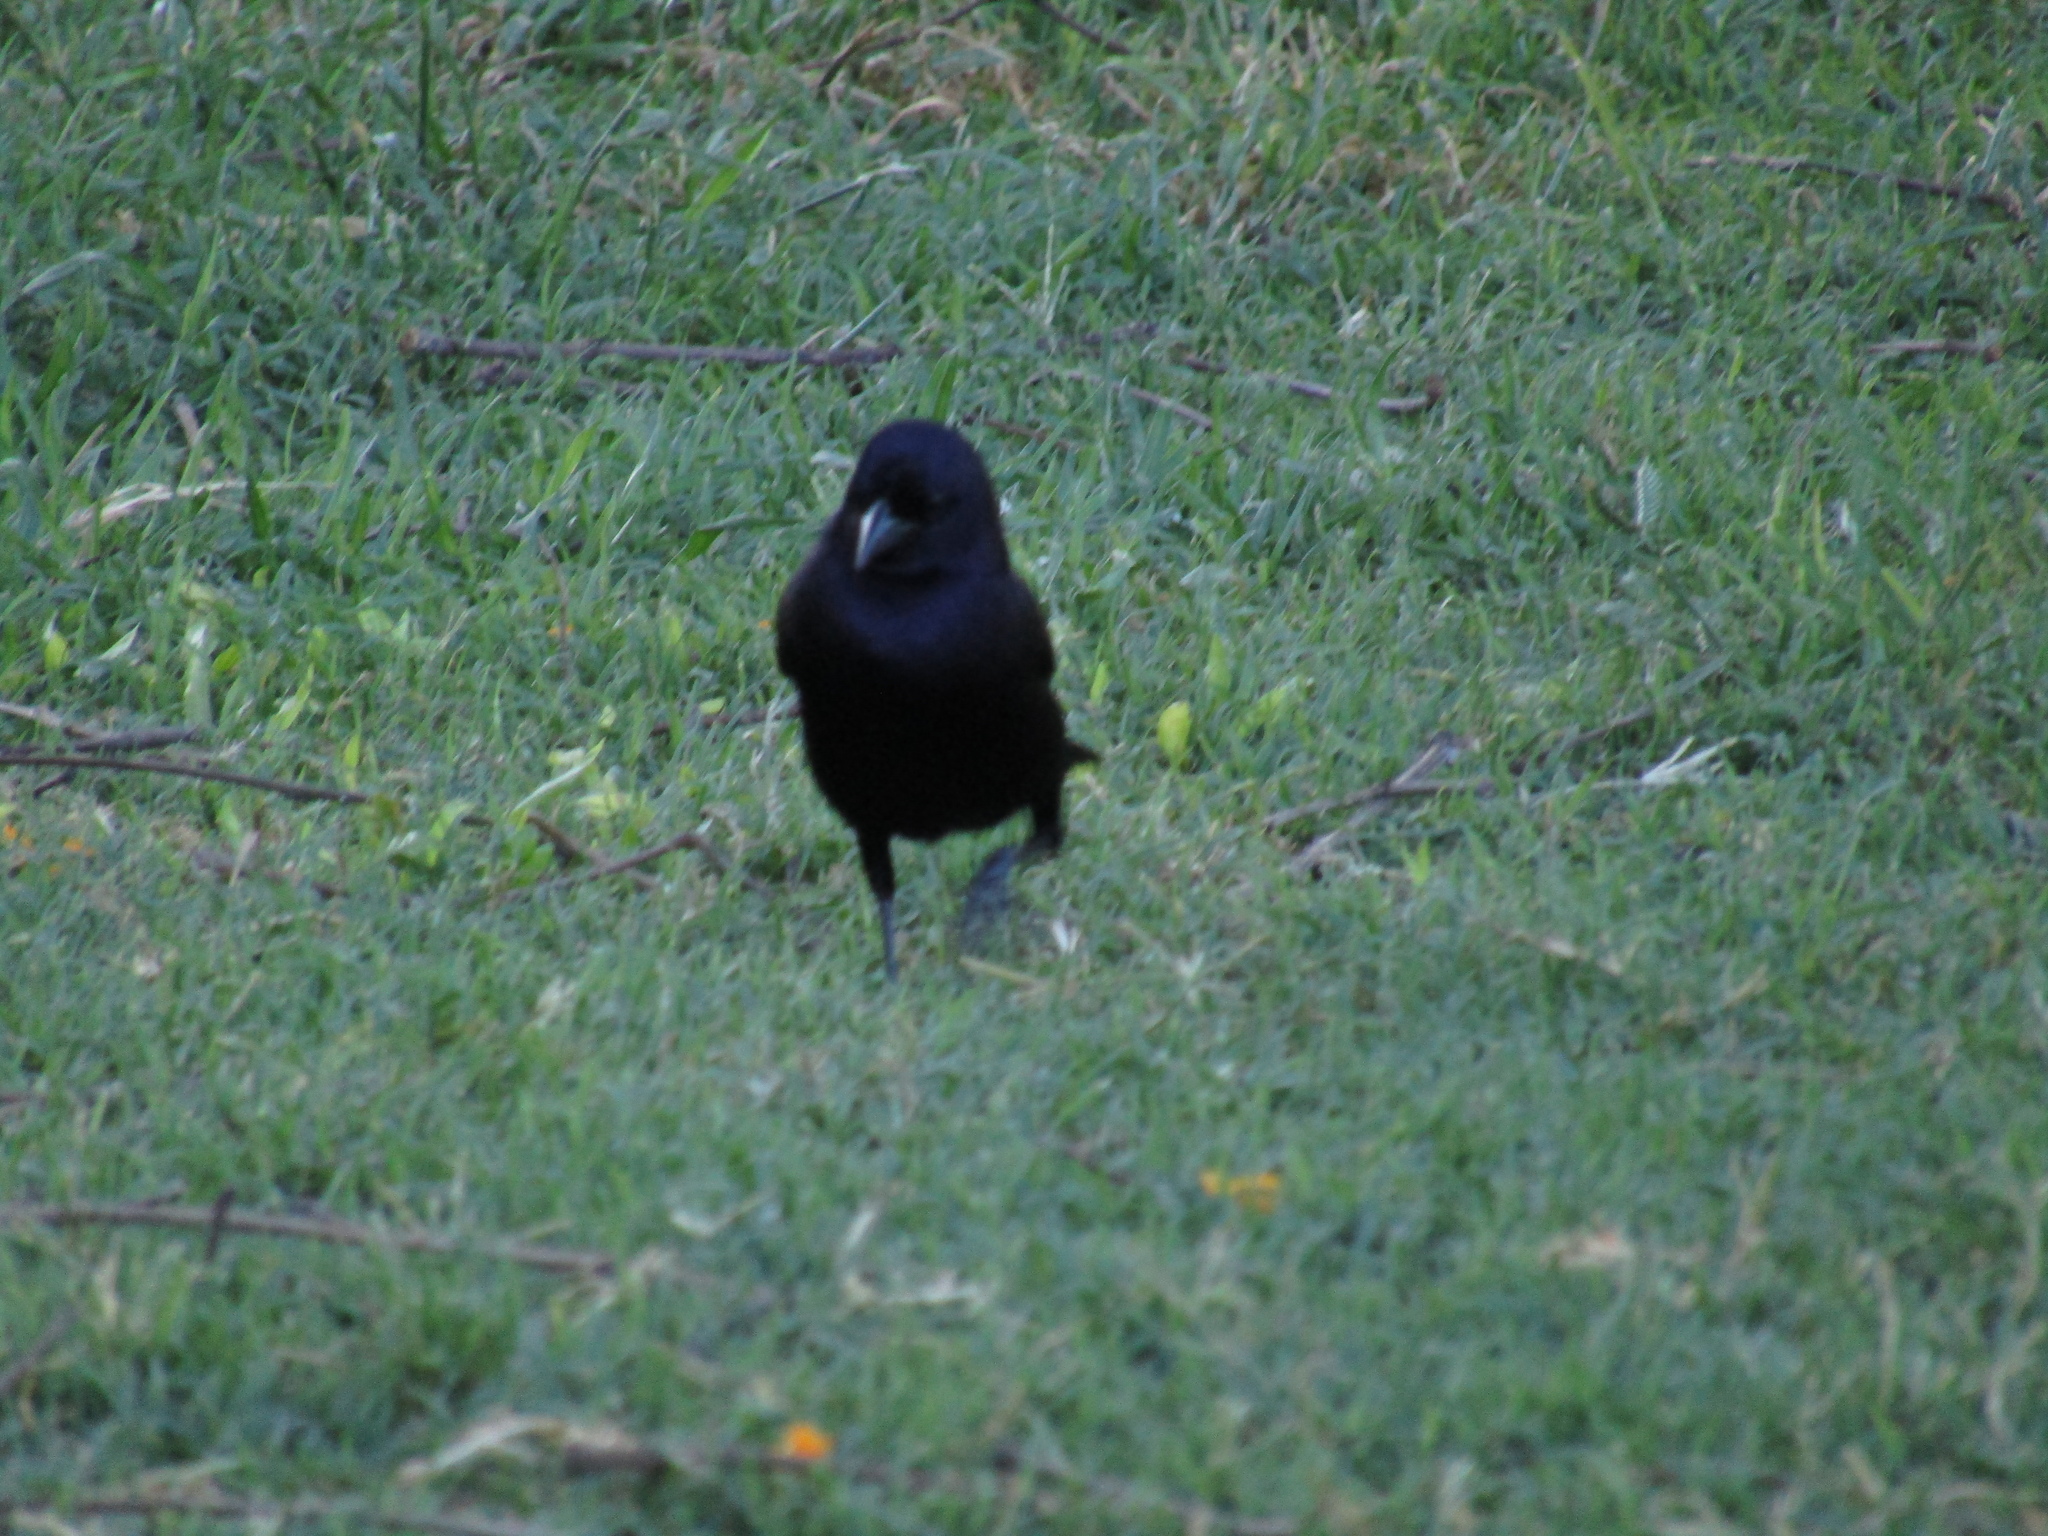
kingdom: Animalia
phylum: Chordata
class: Aves
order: Passeriformes
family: Icteridae
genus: Molothrus
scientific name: Molothrus bonariensis
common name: Shiny cowbird
